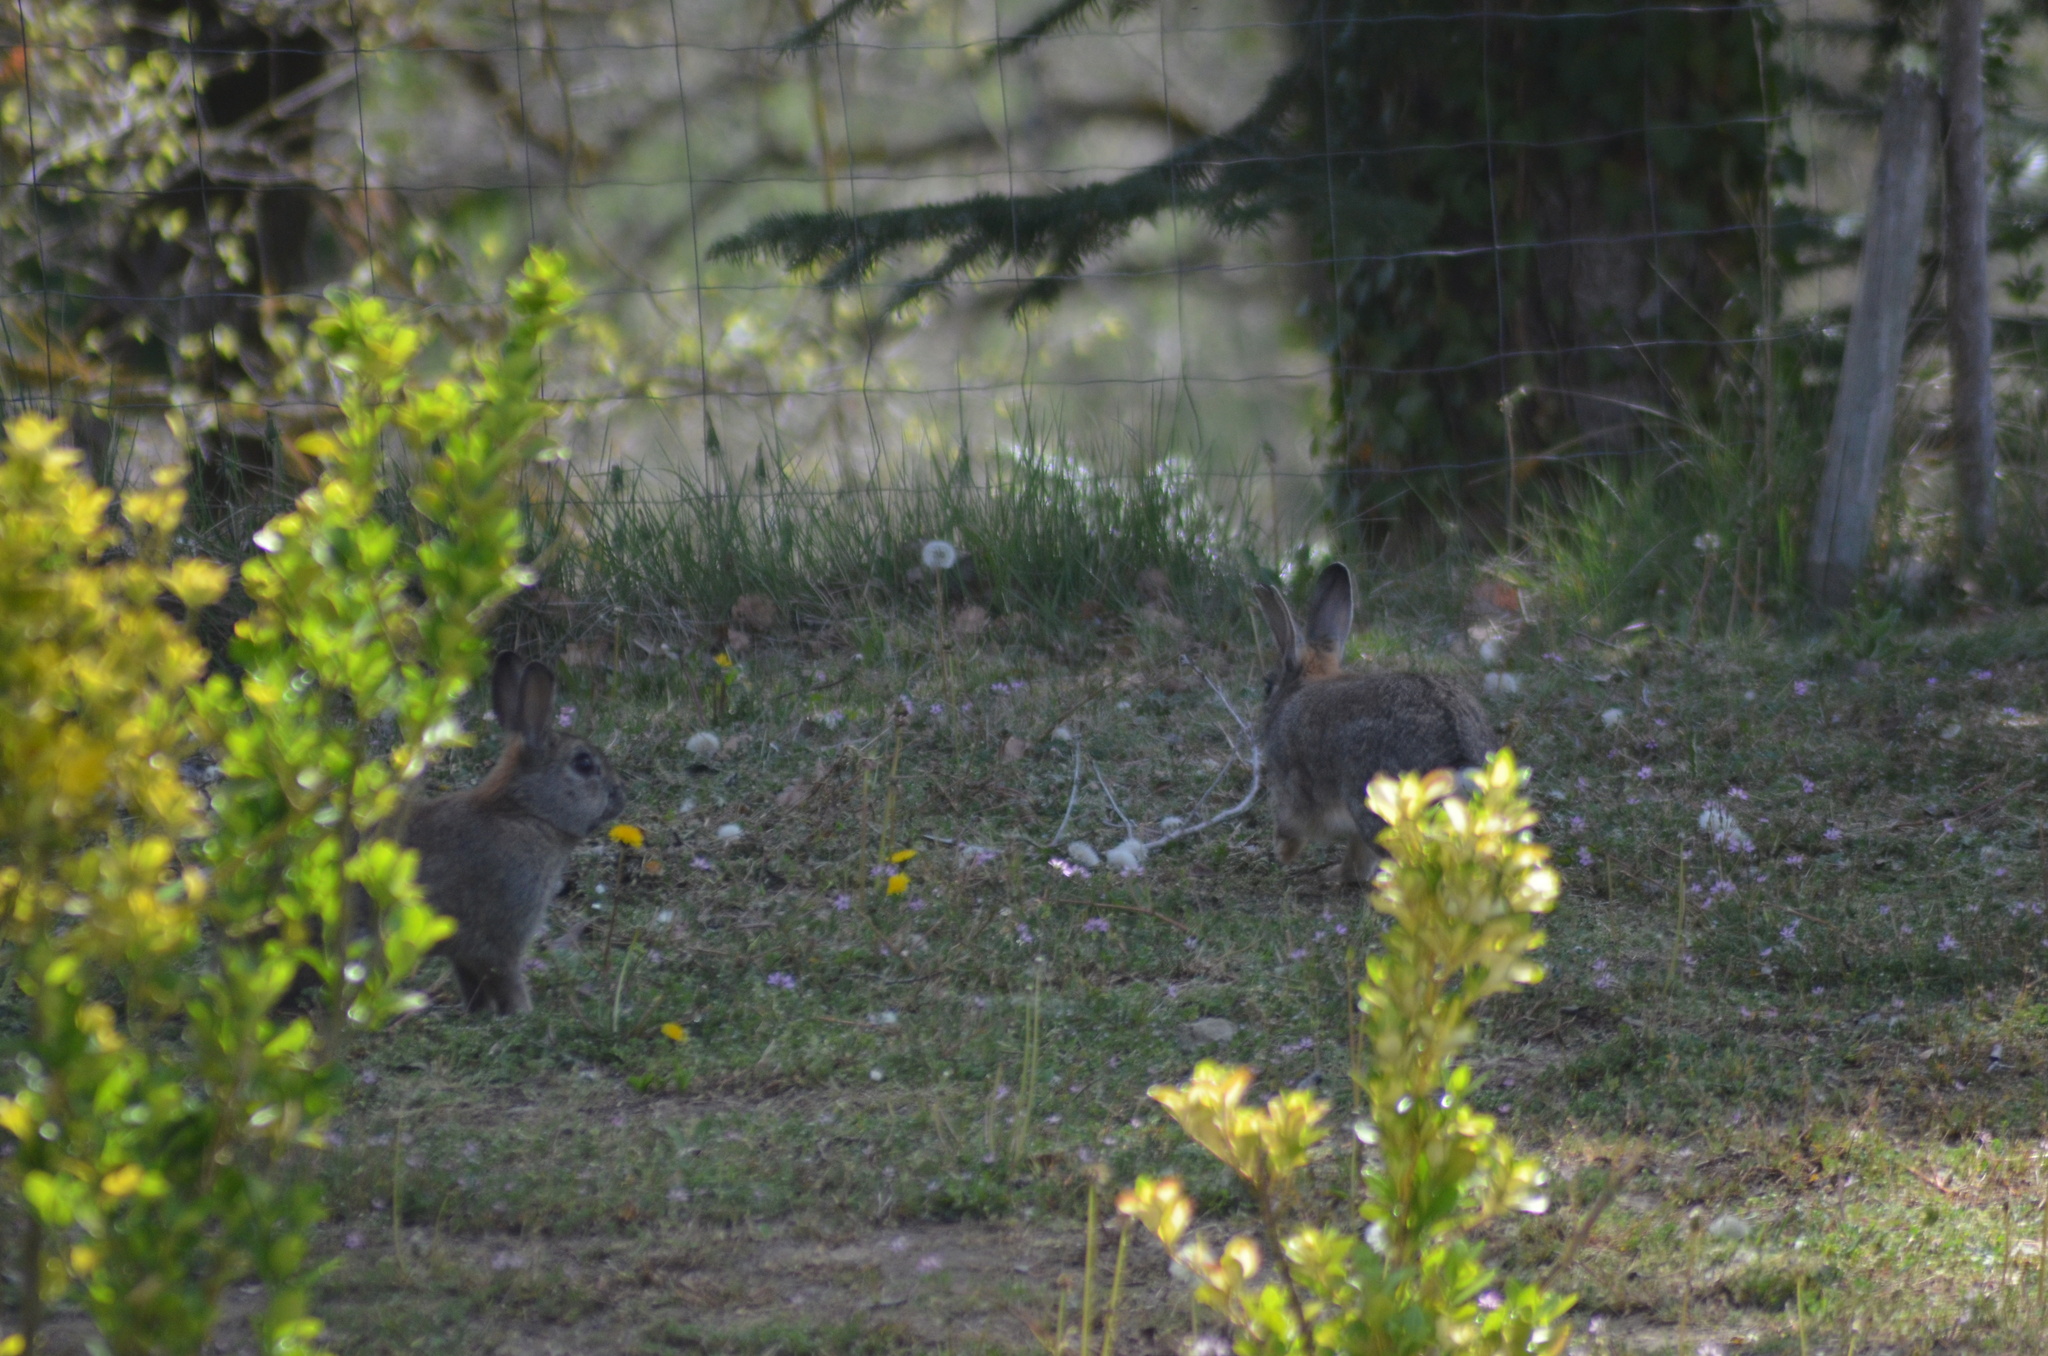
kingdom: Animalia
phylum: Chordata
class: Mammalia
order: Lagomorpha
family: Leporidae
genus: Oryctolagus
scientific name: Oryctolagus cuniculus
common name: European rabbit
